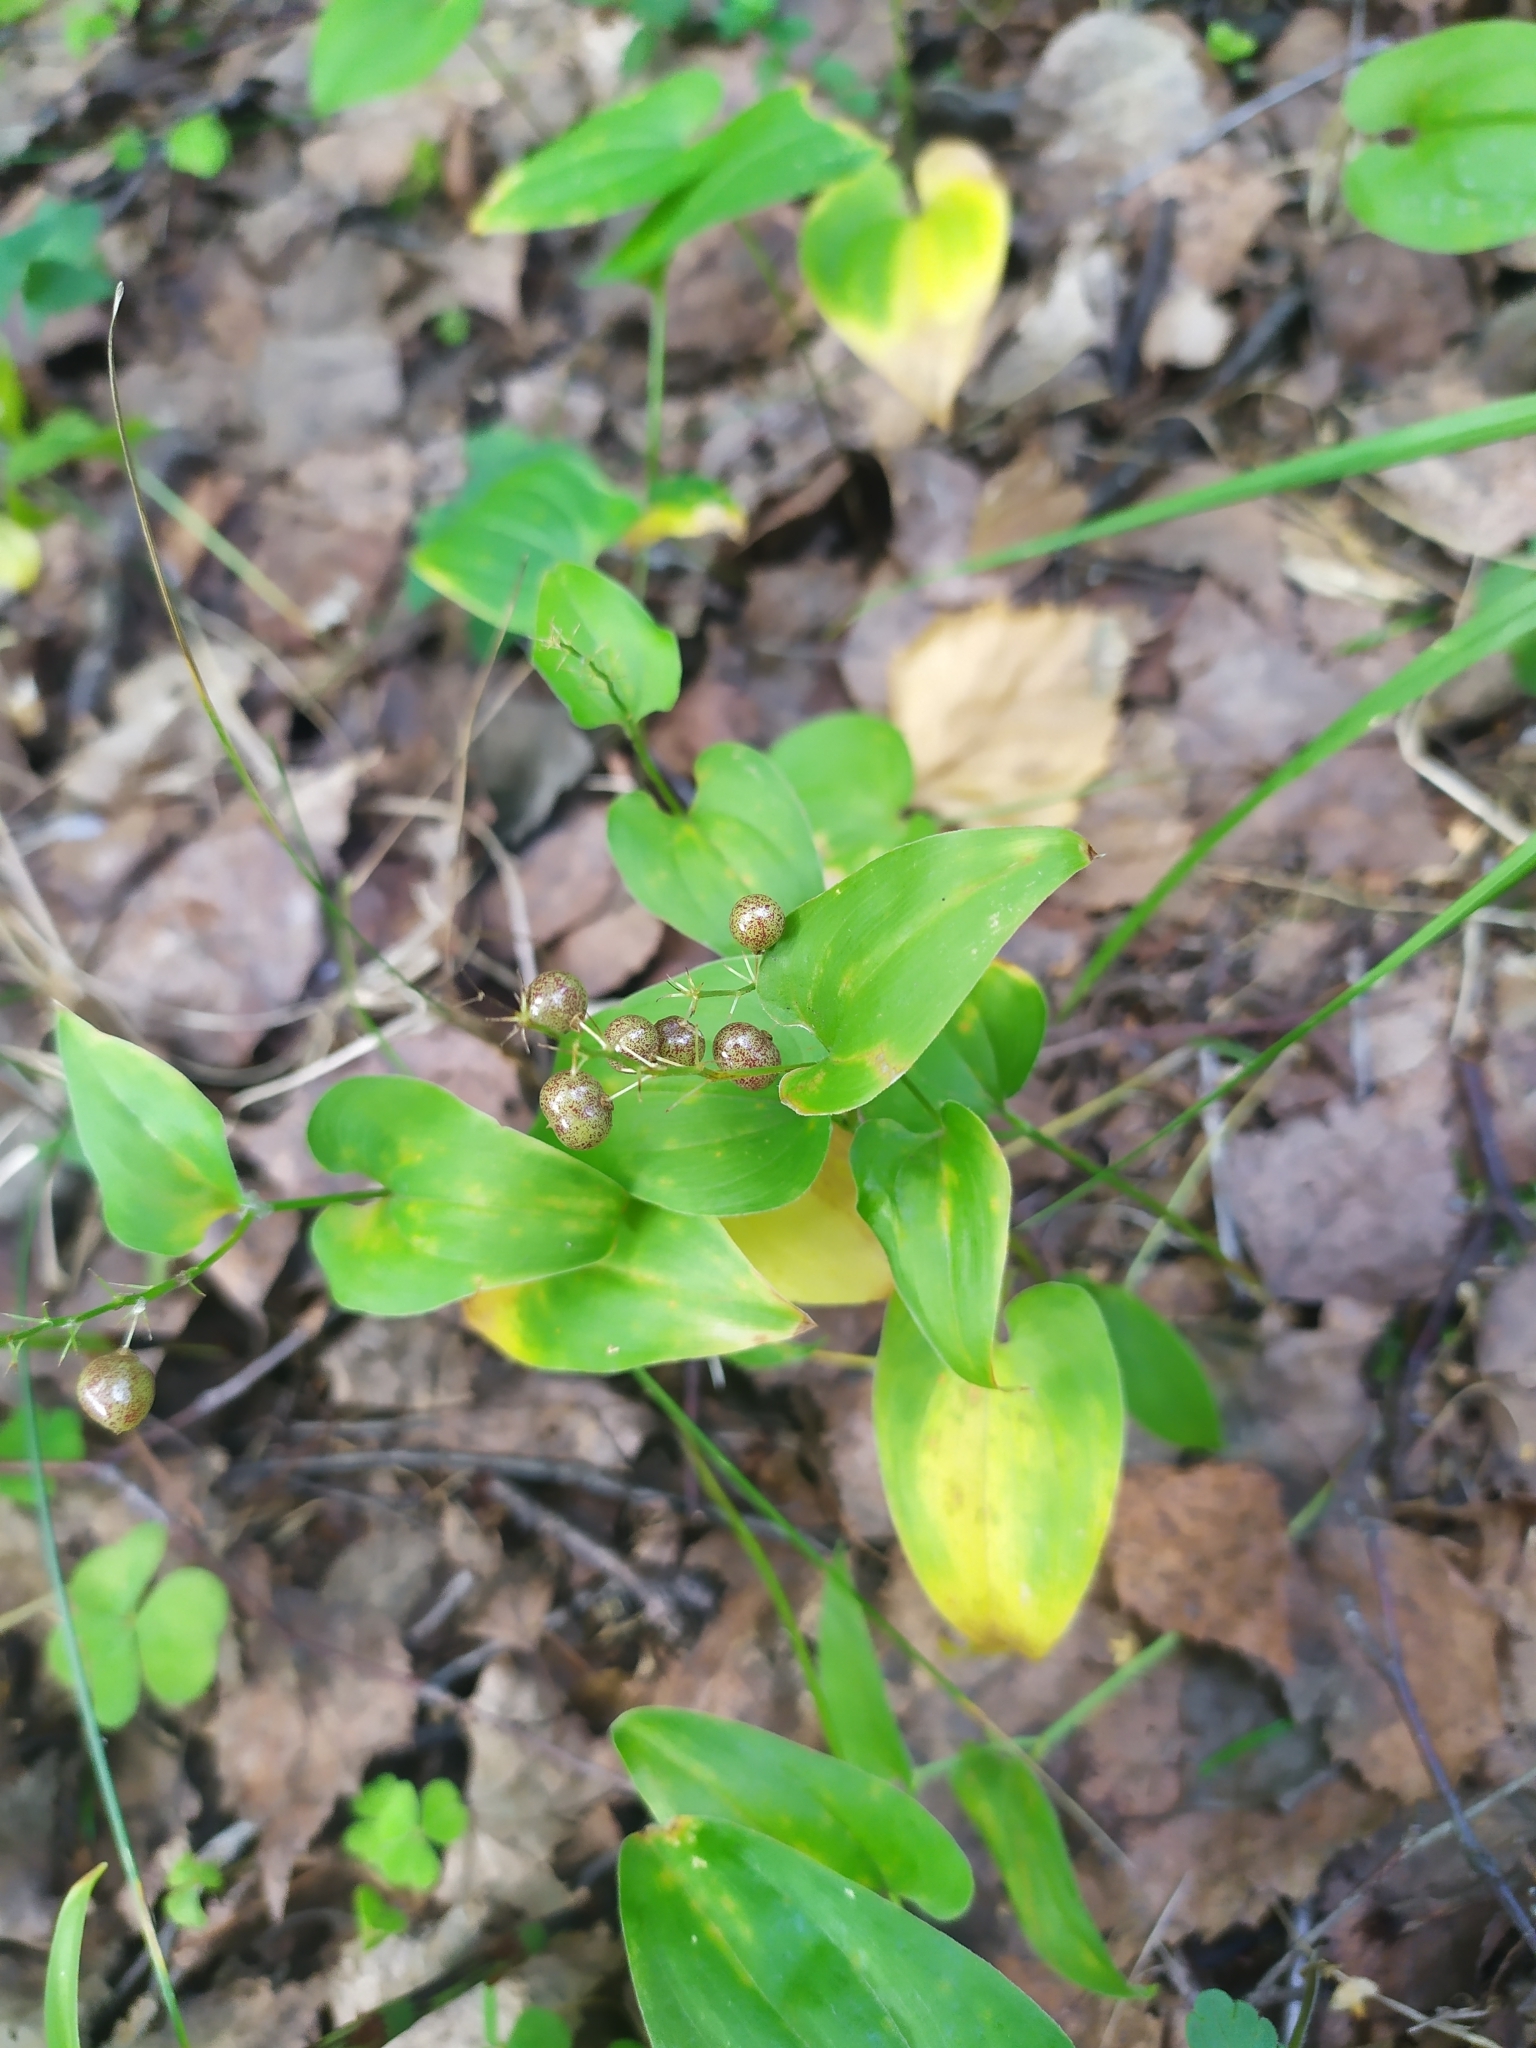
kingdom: Plantae
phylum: Tracheophyta
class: Liliopsida
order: Asparagales
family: Asparagaceae
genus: Maianthemum
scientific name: Maianthemum bifolium
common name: May lily
